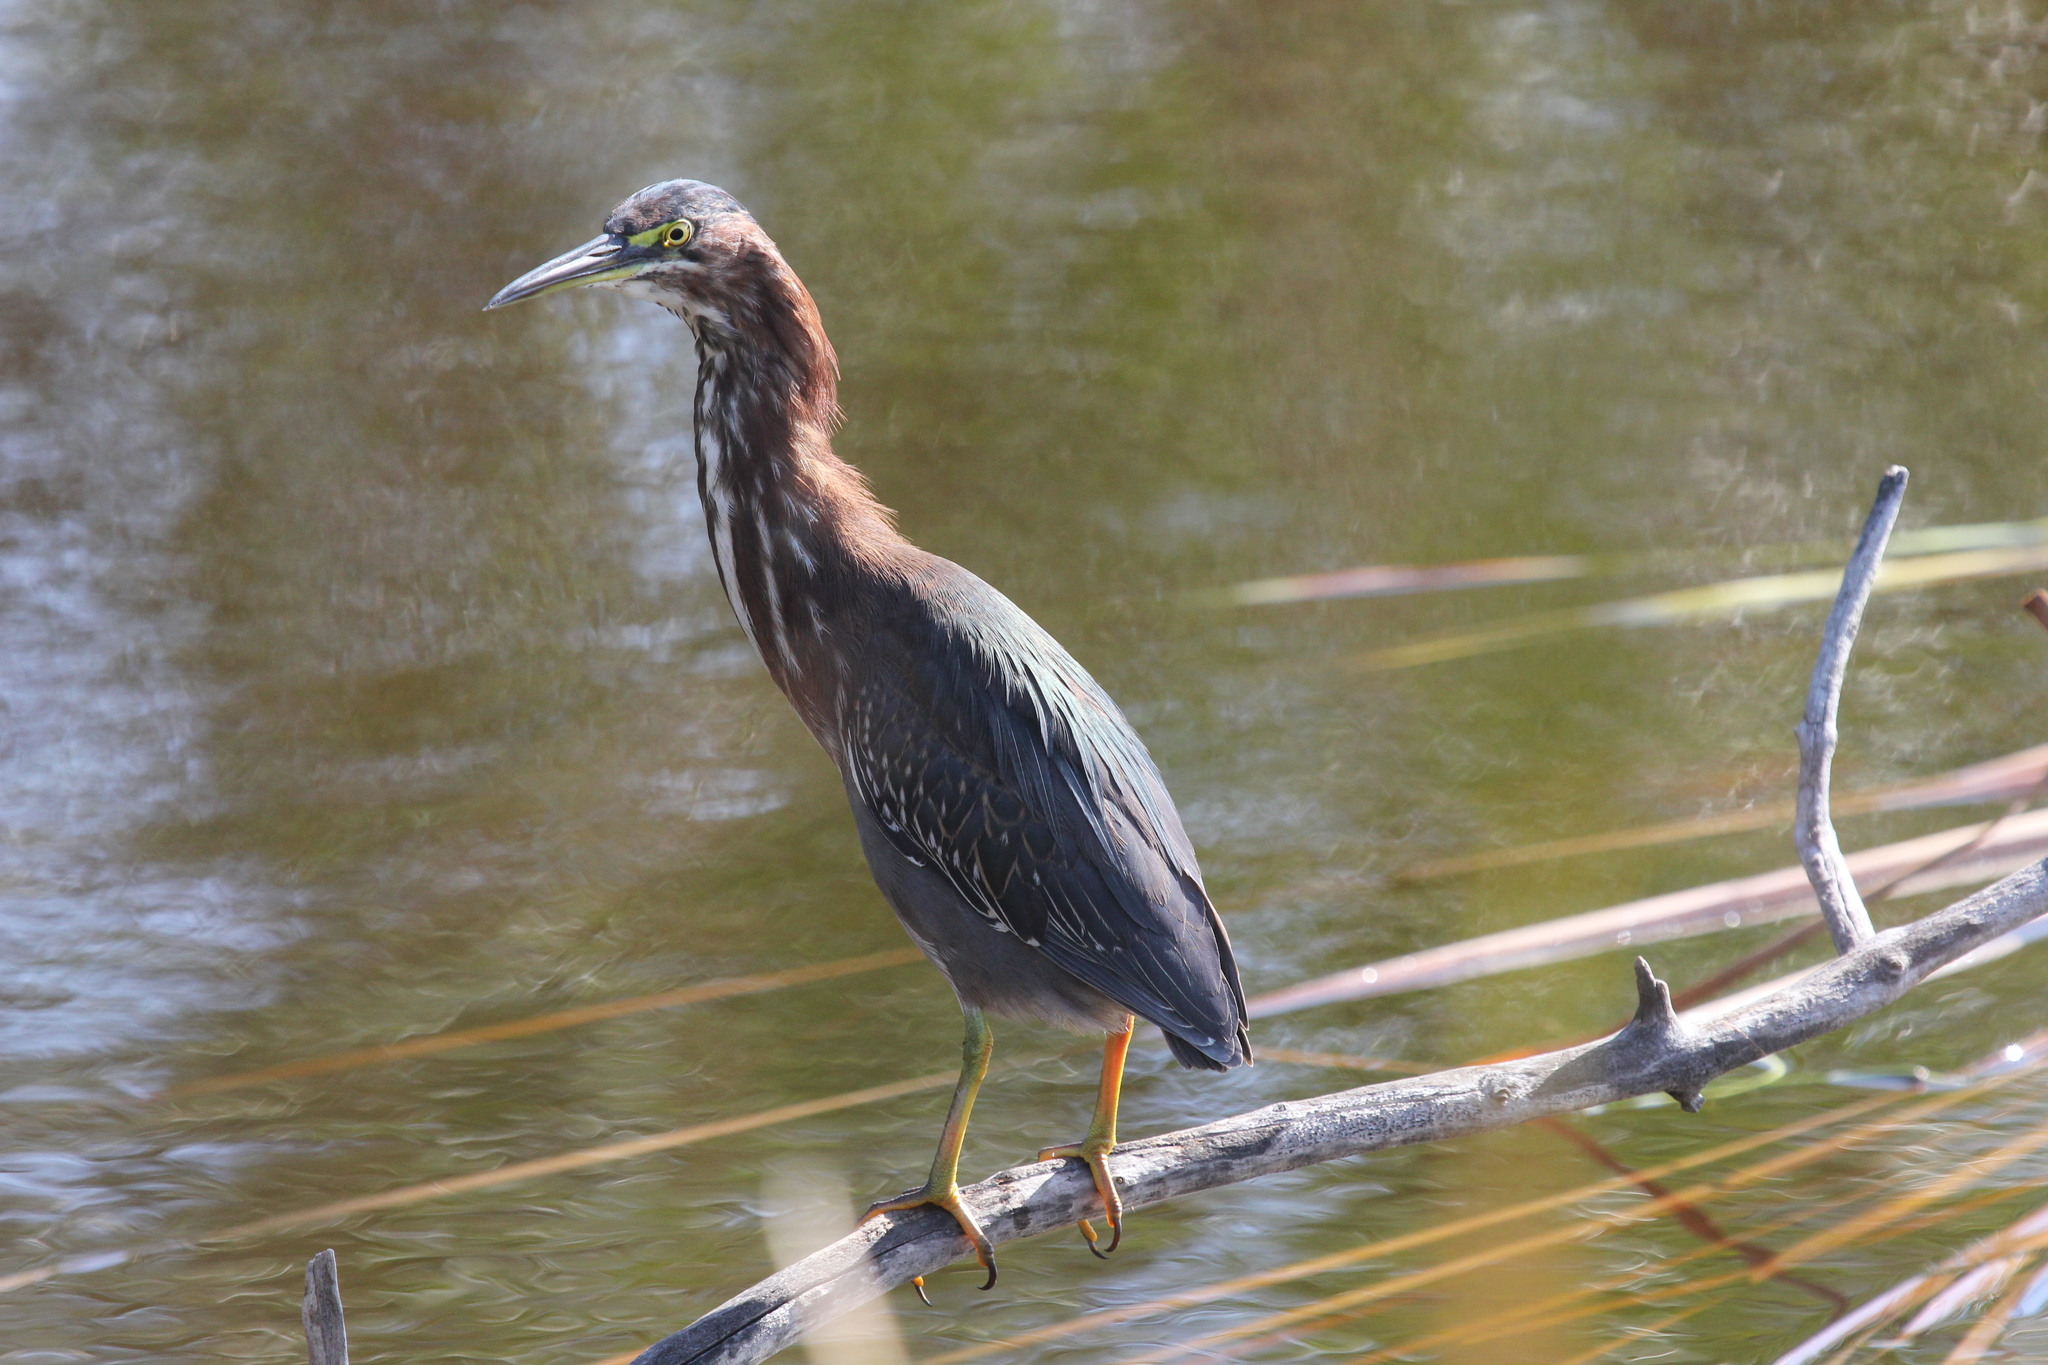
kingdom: Animalia
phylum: Chordata
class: Aves
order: Pelecaniformes
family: Ardeidae
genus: Butorides
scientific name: Butorides virescens
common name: Green heron
